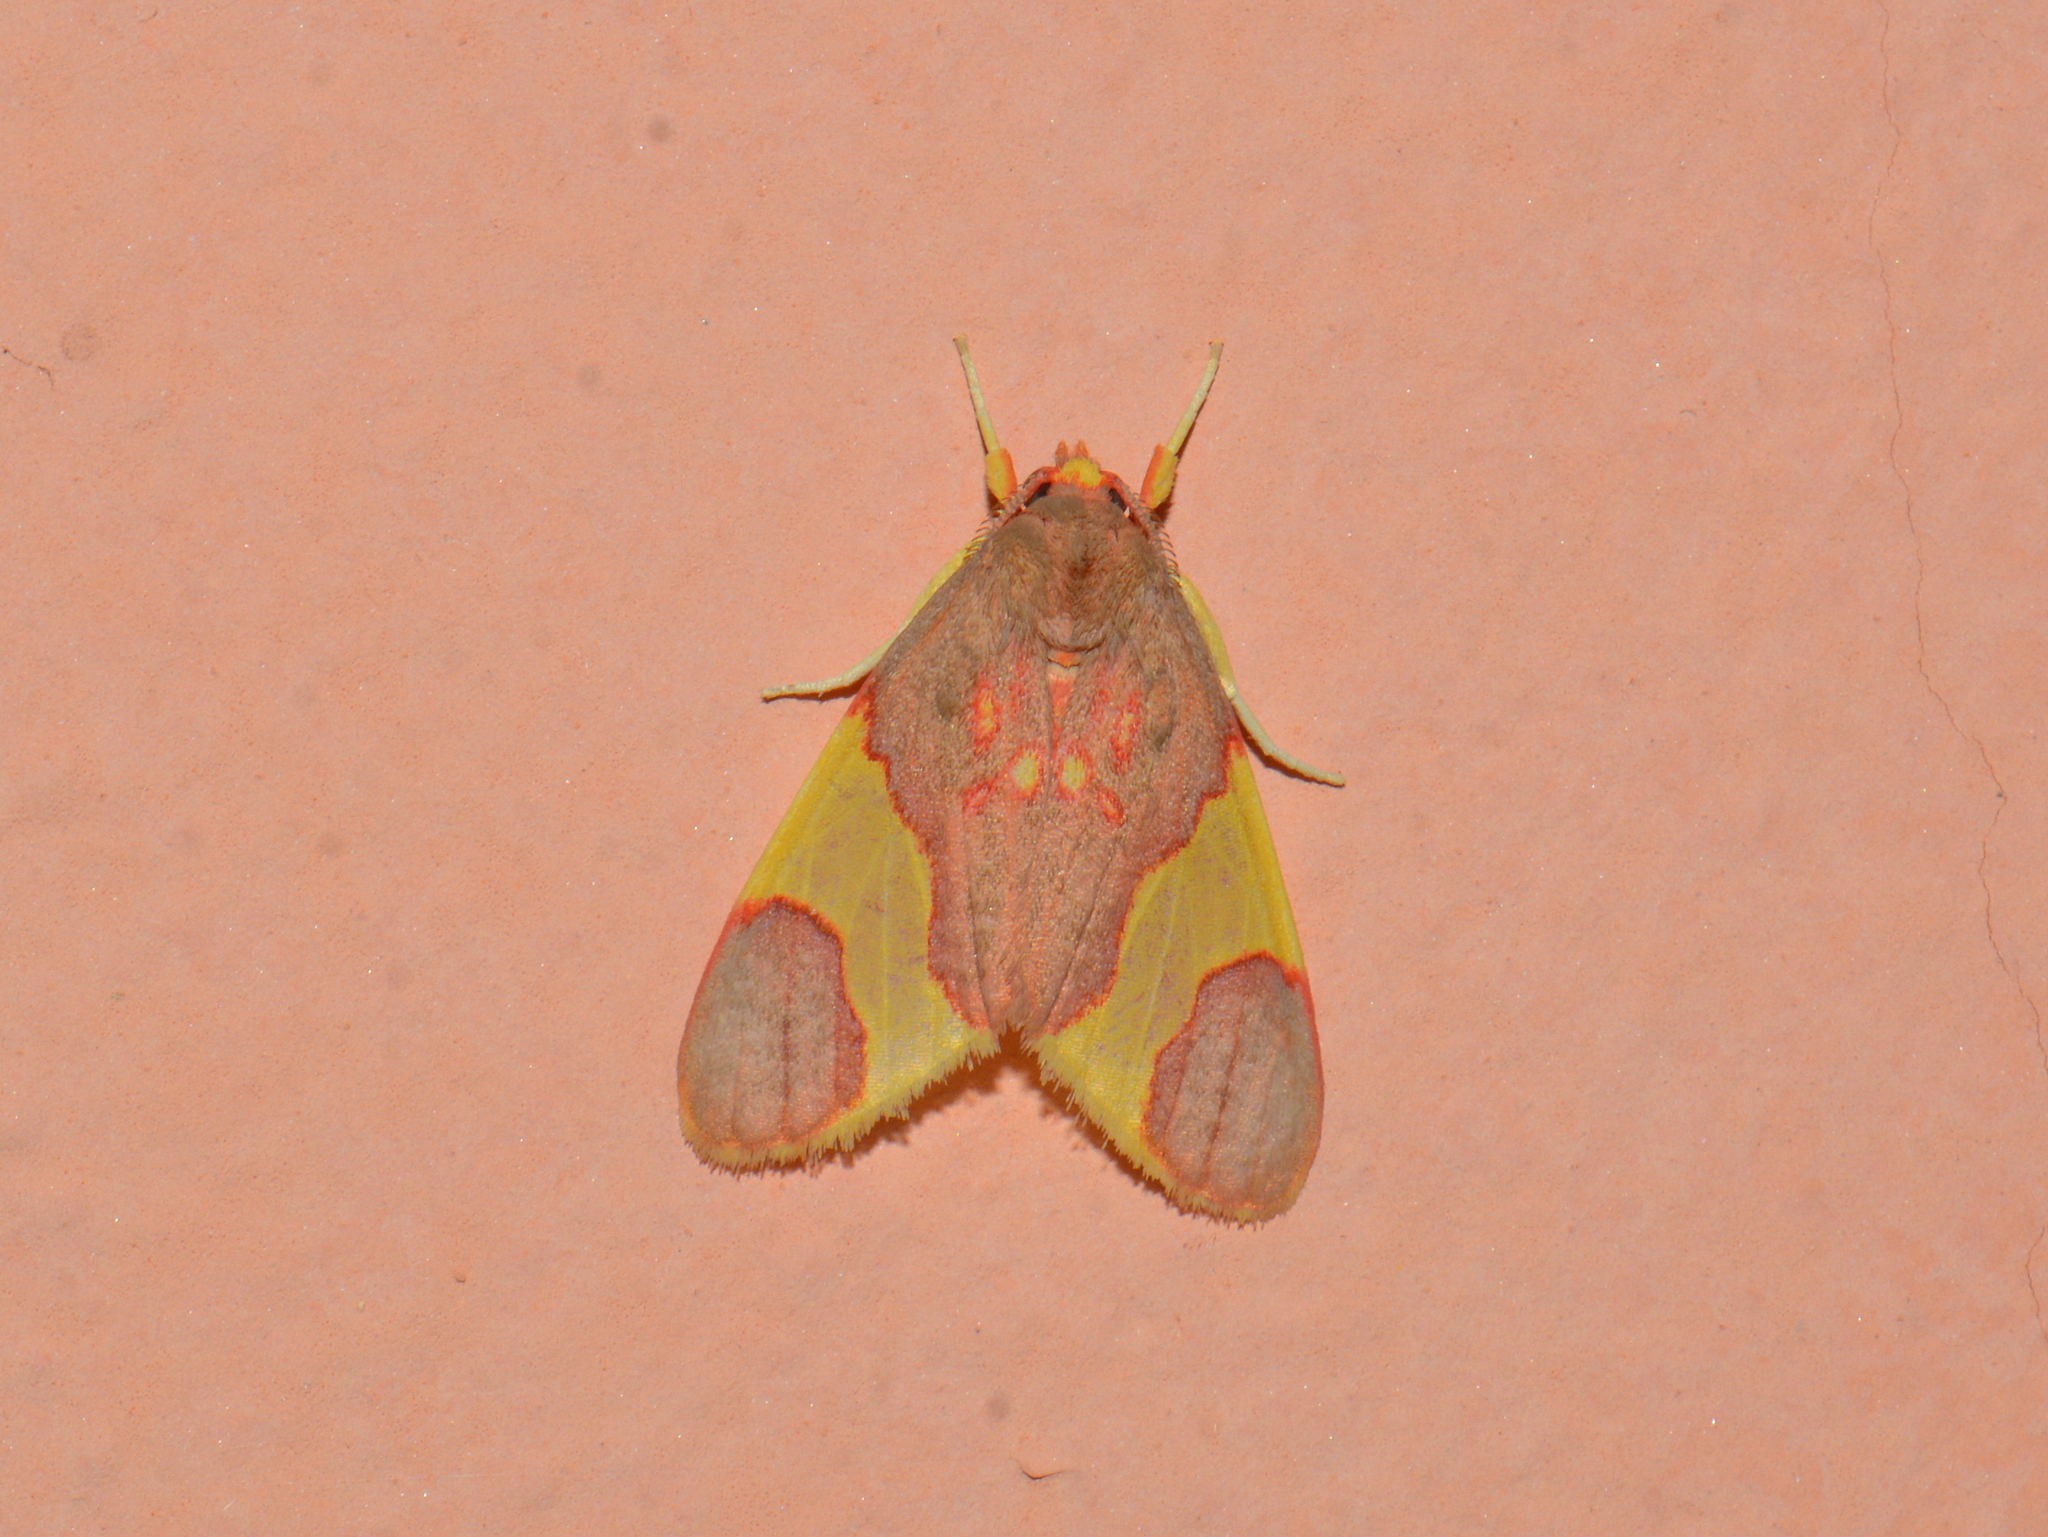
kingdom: Animalia
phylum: Arthropoda
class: Insecta
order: Lepidoptera
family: Erebidae
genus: Trichromia
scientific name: Trichromia
